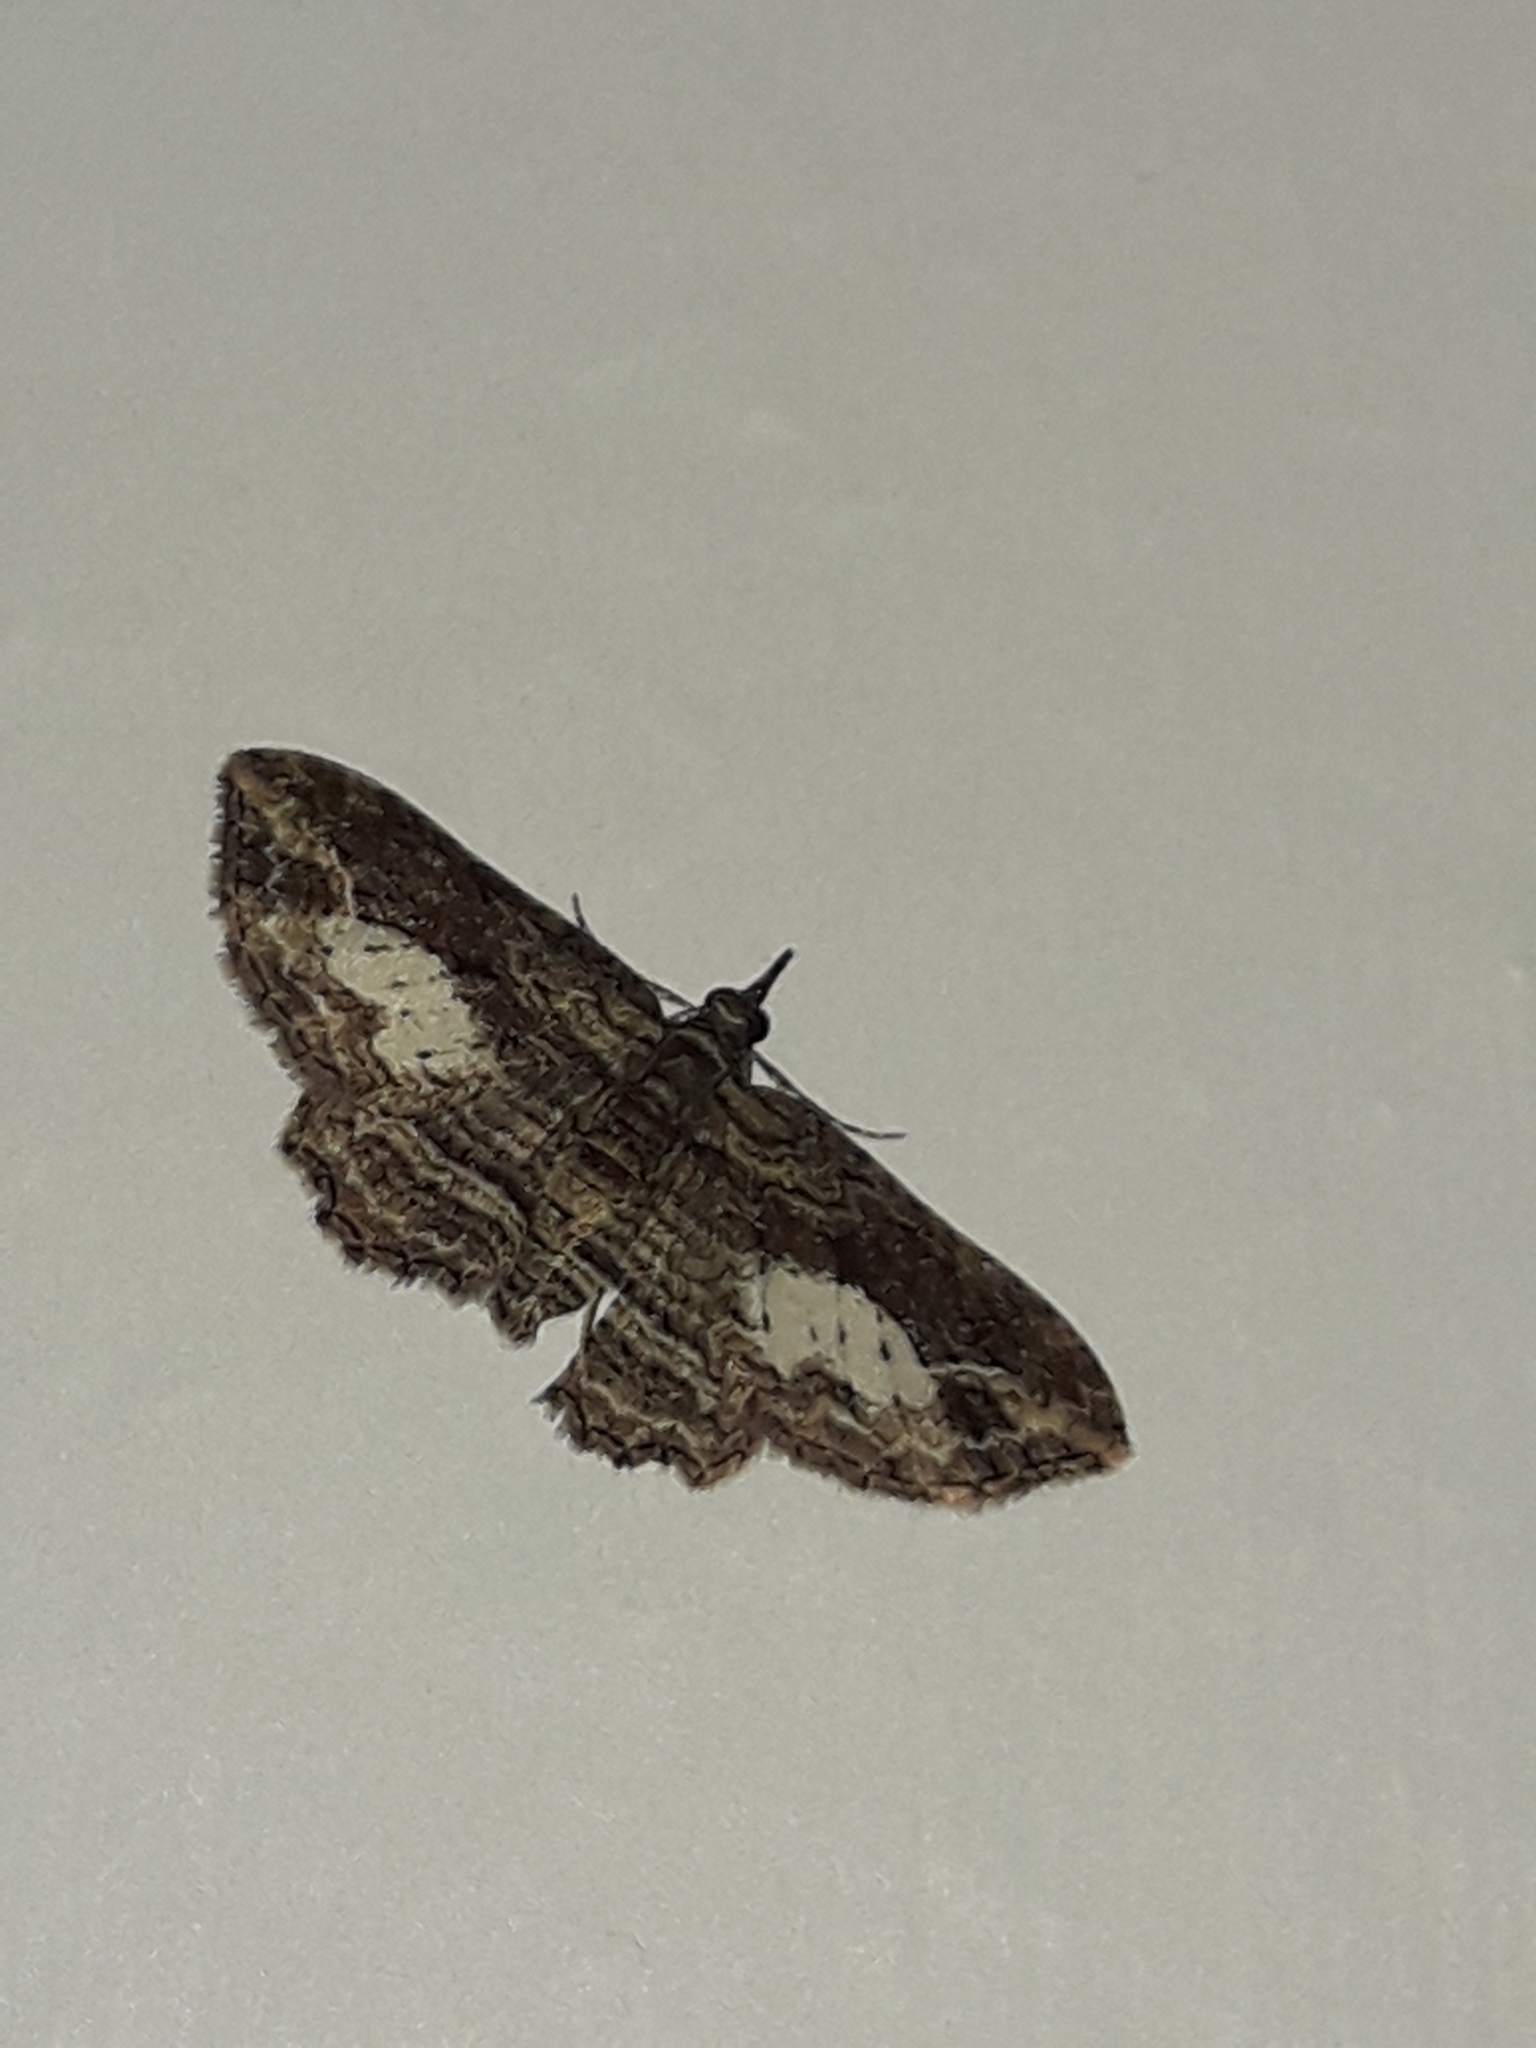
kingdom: Animalia
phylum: Arthropoda
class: Insecta
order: Lepidoptera
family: Geometridae
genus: Chloroclystis
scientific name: Chloroclystis filata
